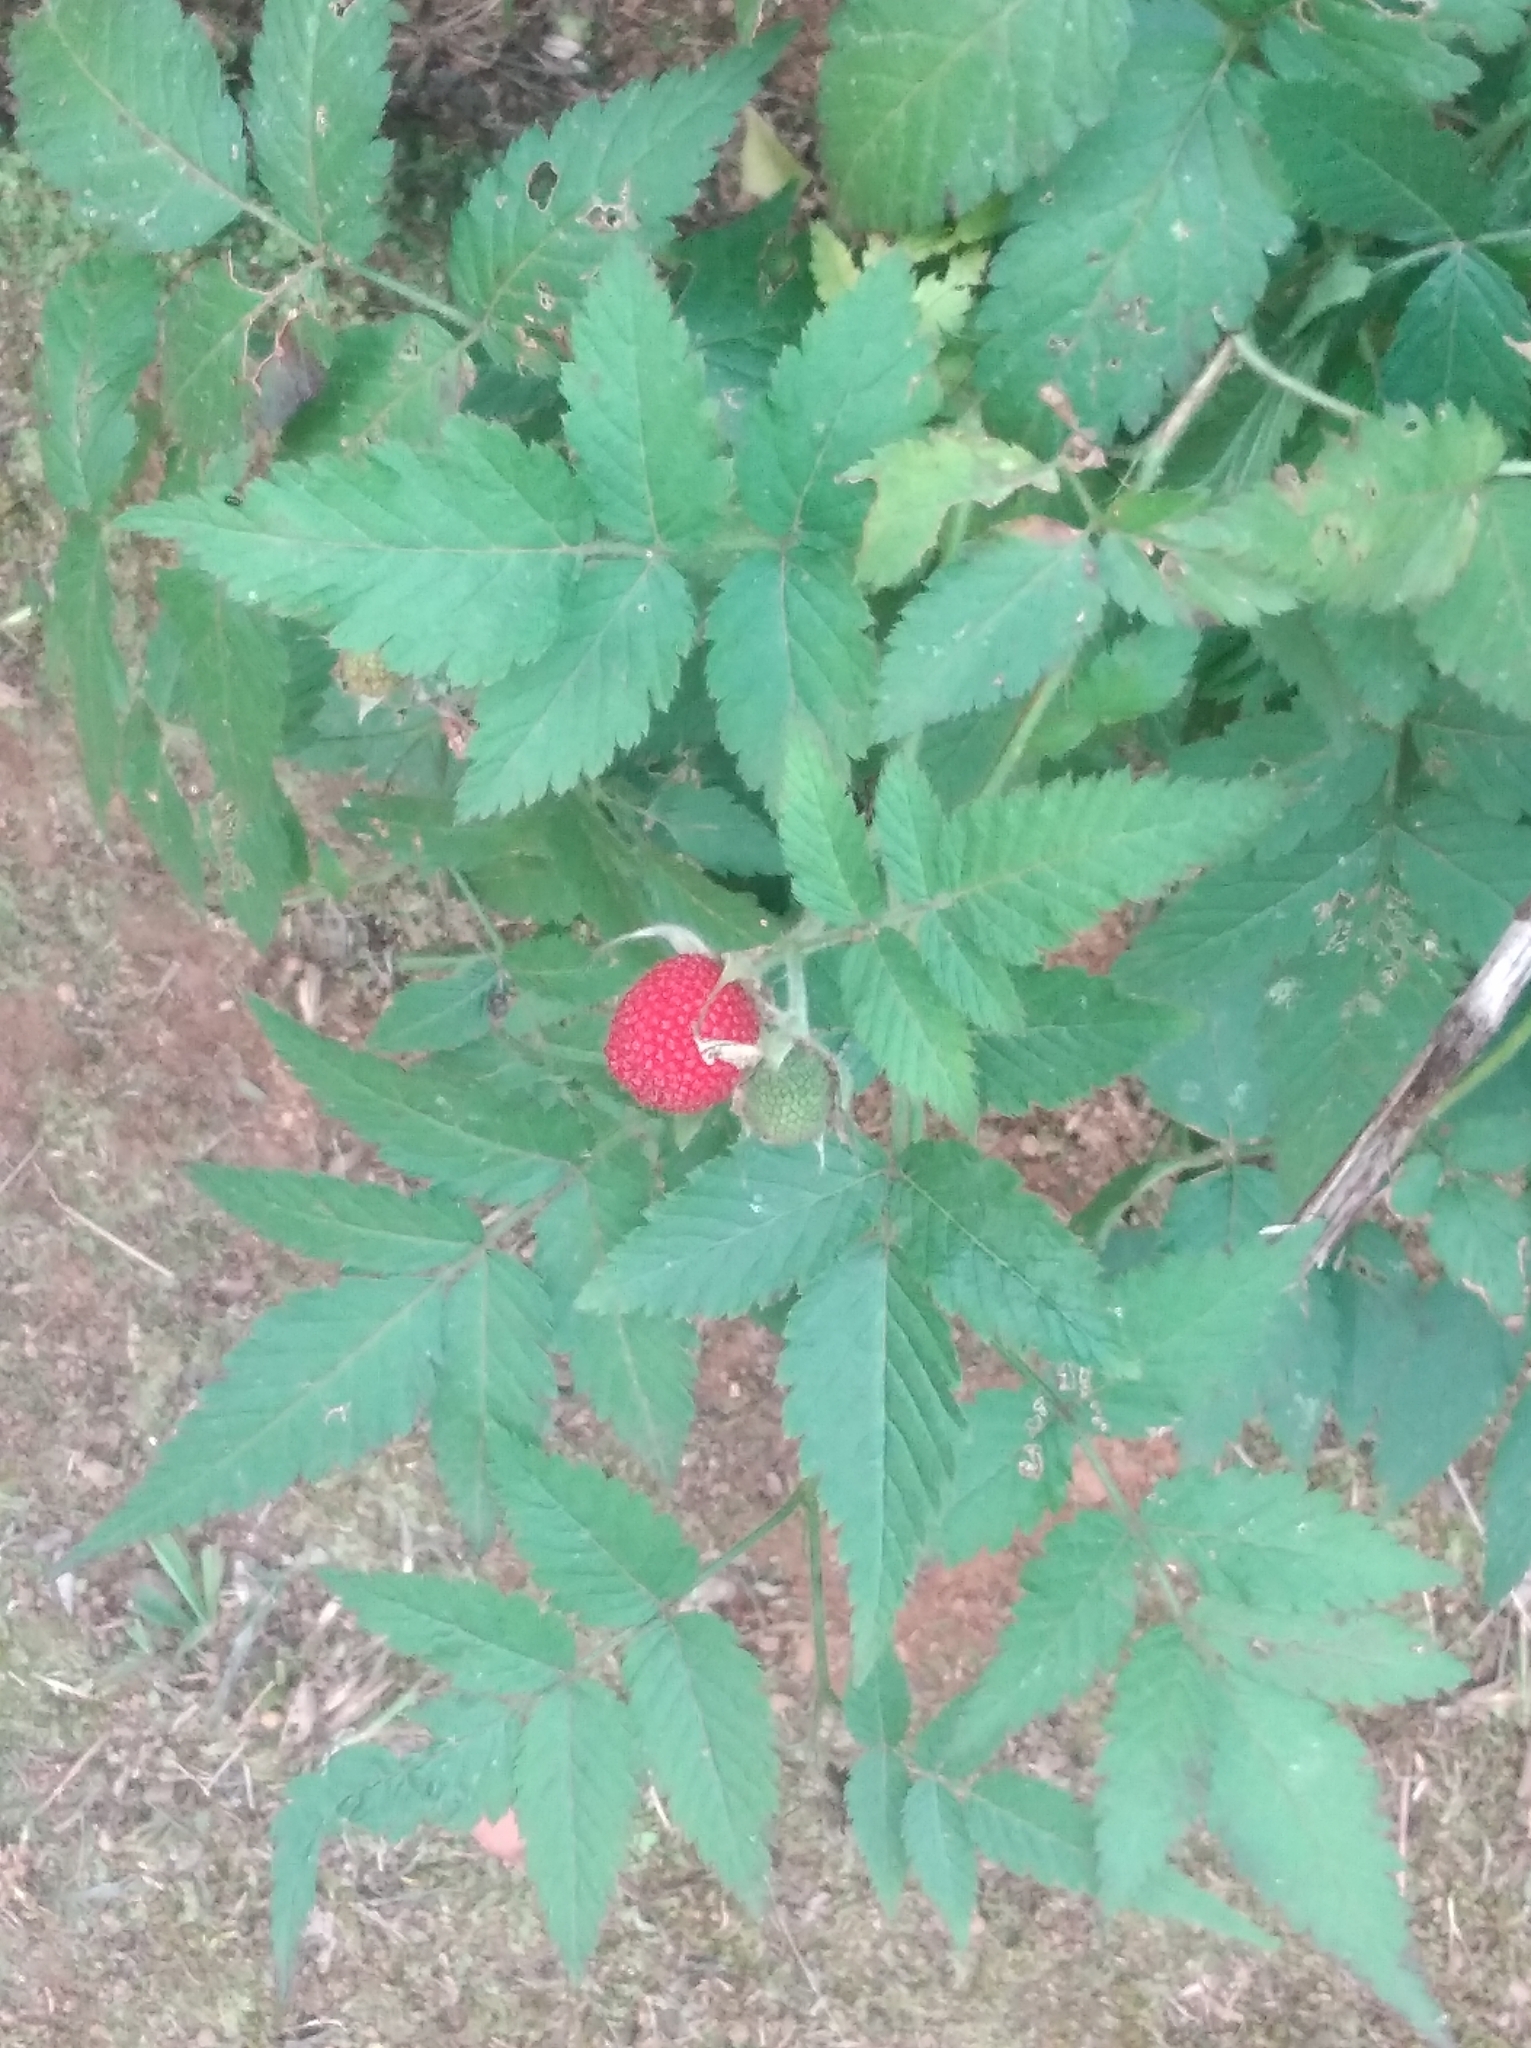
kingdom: Plantae
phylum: Tracheophyta
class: Magnoliopsida
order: Rosales
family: Rosaceae
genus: Rubus
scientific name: Rubus rosifolius
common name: Roseleaf raspberry
